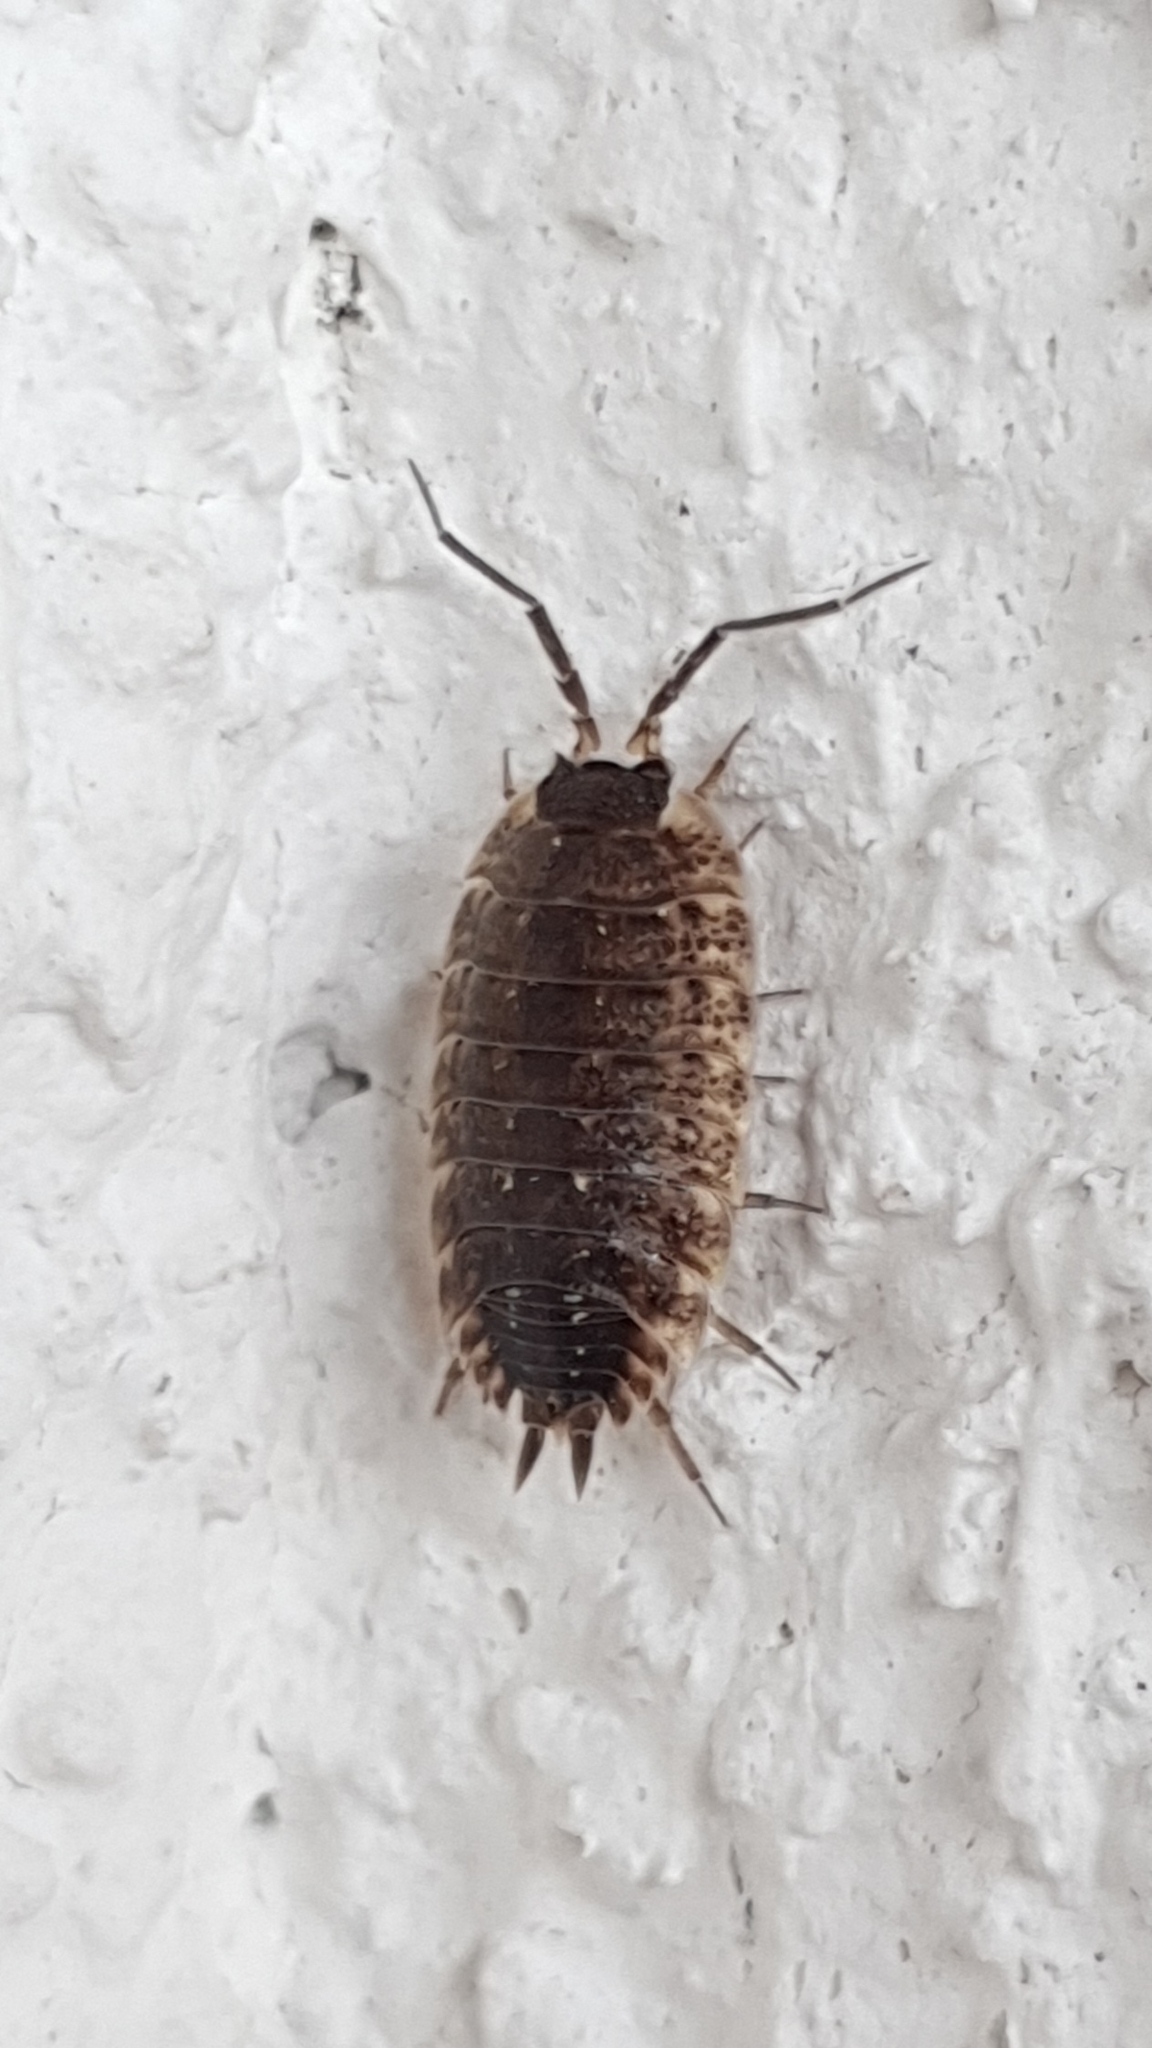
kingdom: Animalia
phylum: Arthropoda
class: Malacostraca
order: Isopoda
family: Porcellionidae
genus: Porcellio
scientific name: Porcellio spinicornis
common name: Painted woodlouse
